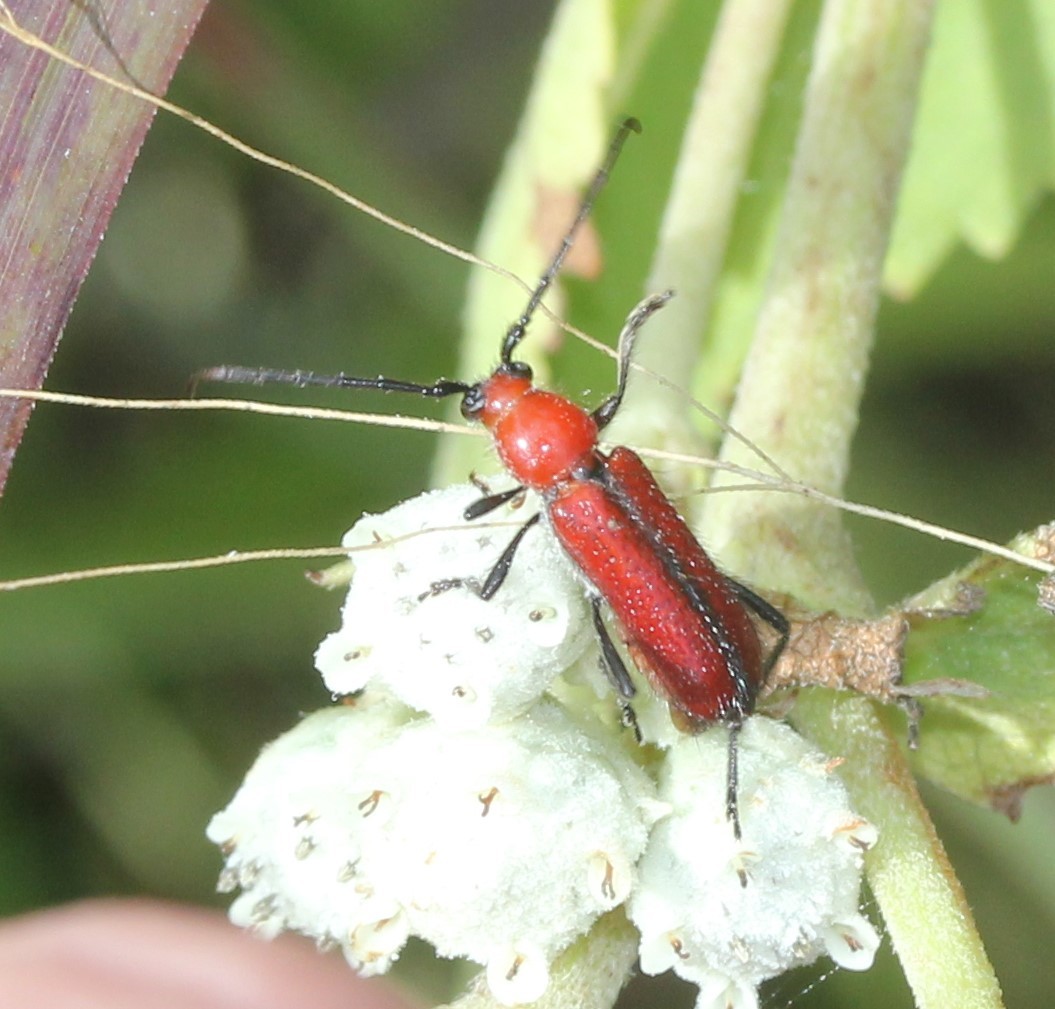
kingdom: Animalia
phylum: Arthropoda
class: Insecta
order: Coleoptera
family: Cerambycidae
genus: Batyle
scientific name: Batyle suturalis
